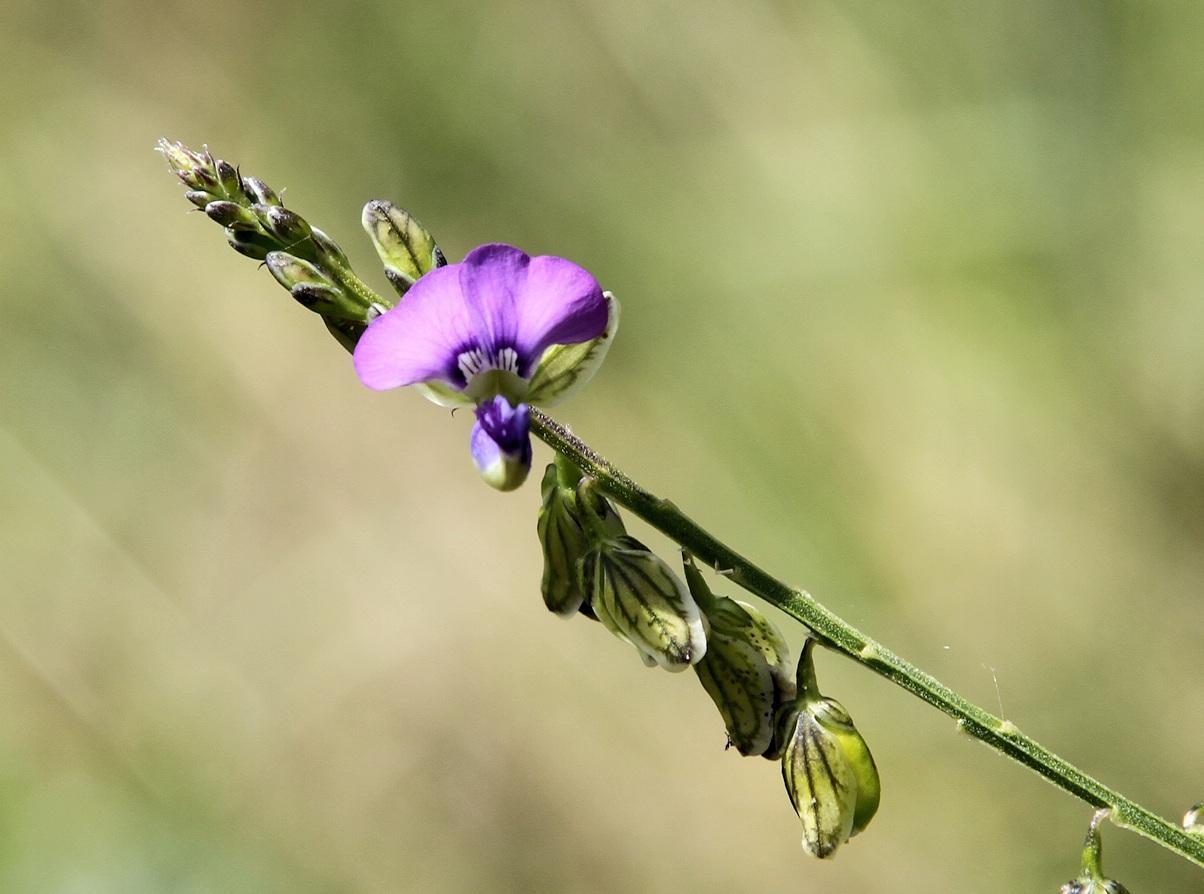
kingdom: Plantae
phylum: Tracheophyta
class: Magnoliopsida
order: Fabales
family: Polygalaceae
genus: Polygala
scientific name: Polygala uncinata
